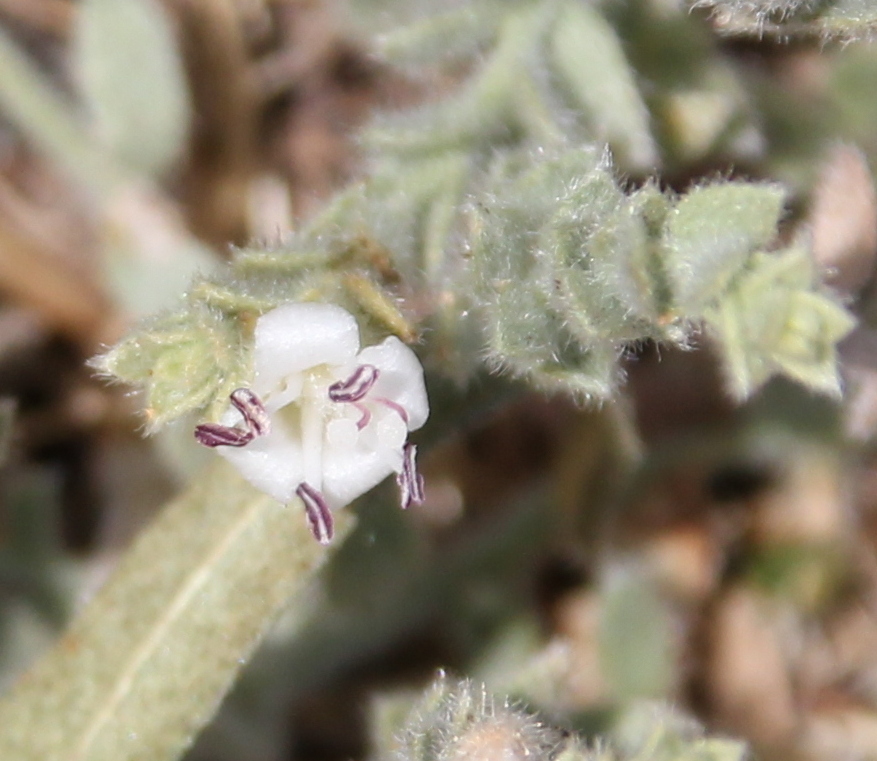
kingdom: Plantae
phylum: Tracheophyta
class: Magnoliopsida
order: Solanales
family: Convolvulaceae
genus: Cressa
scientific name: Cressa truxillensis
